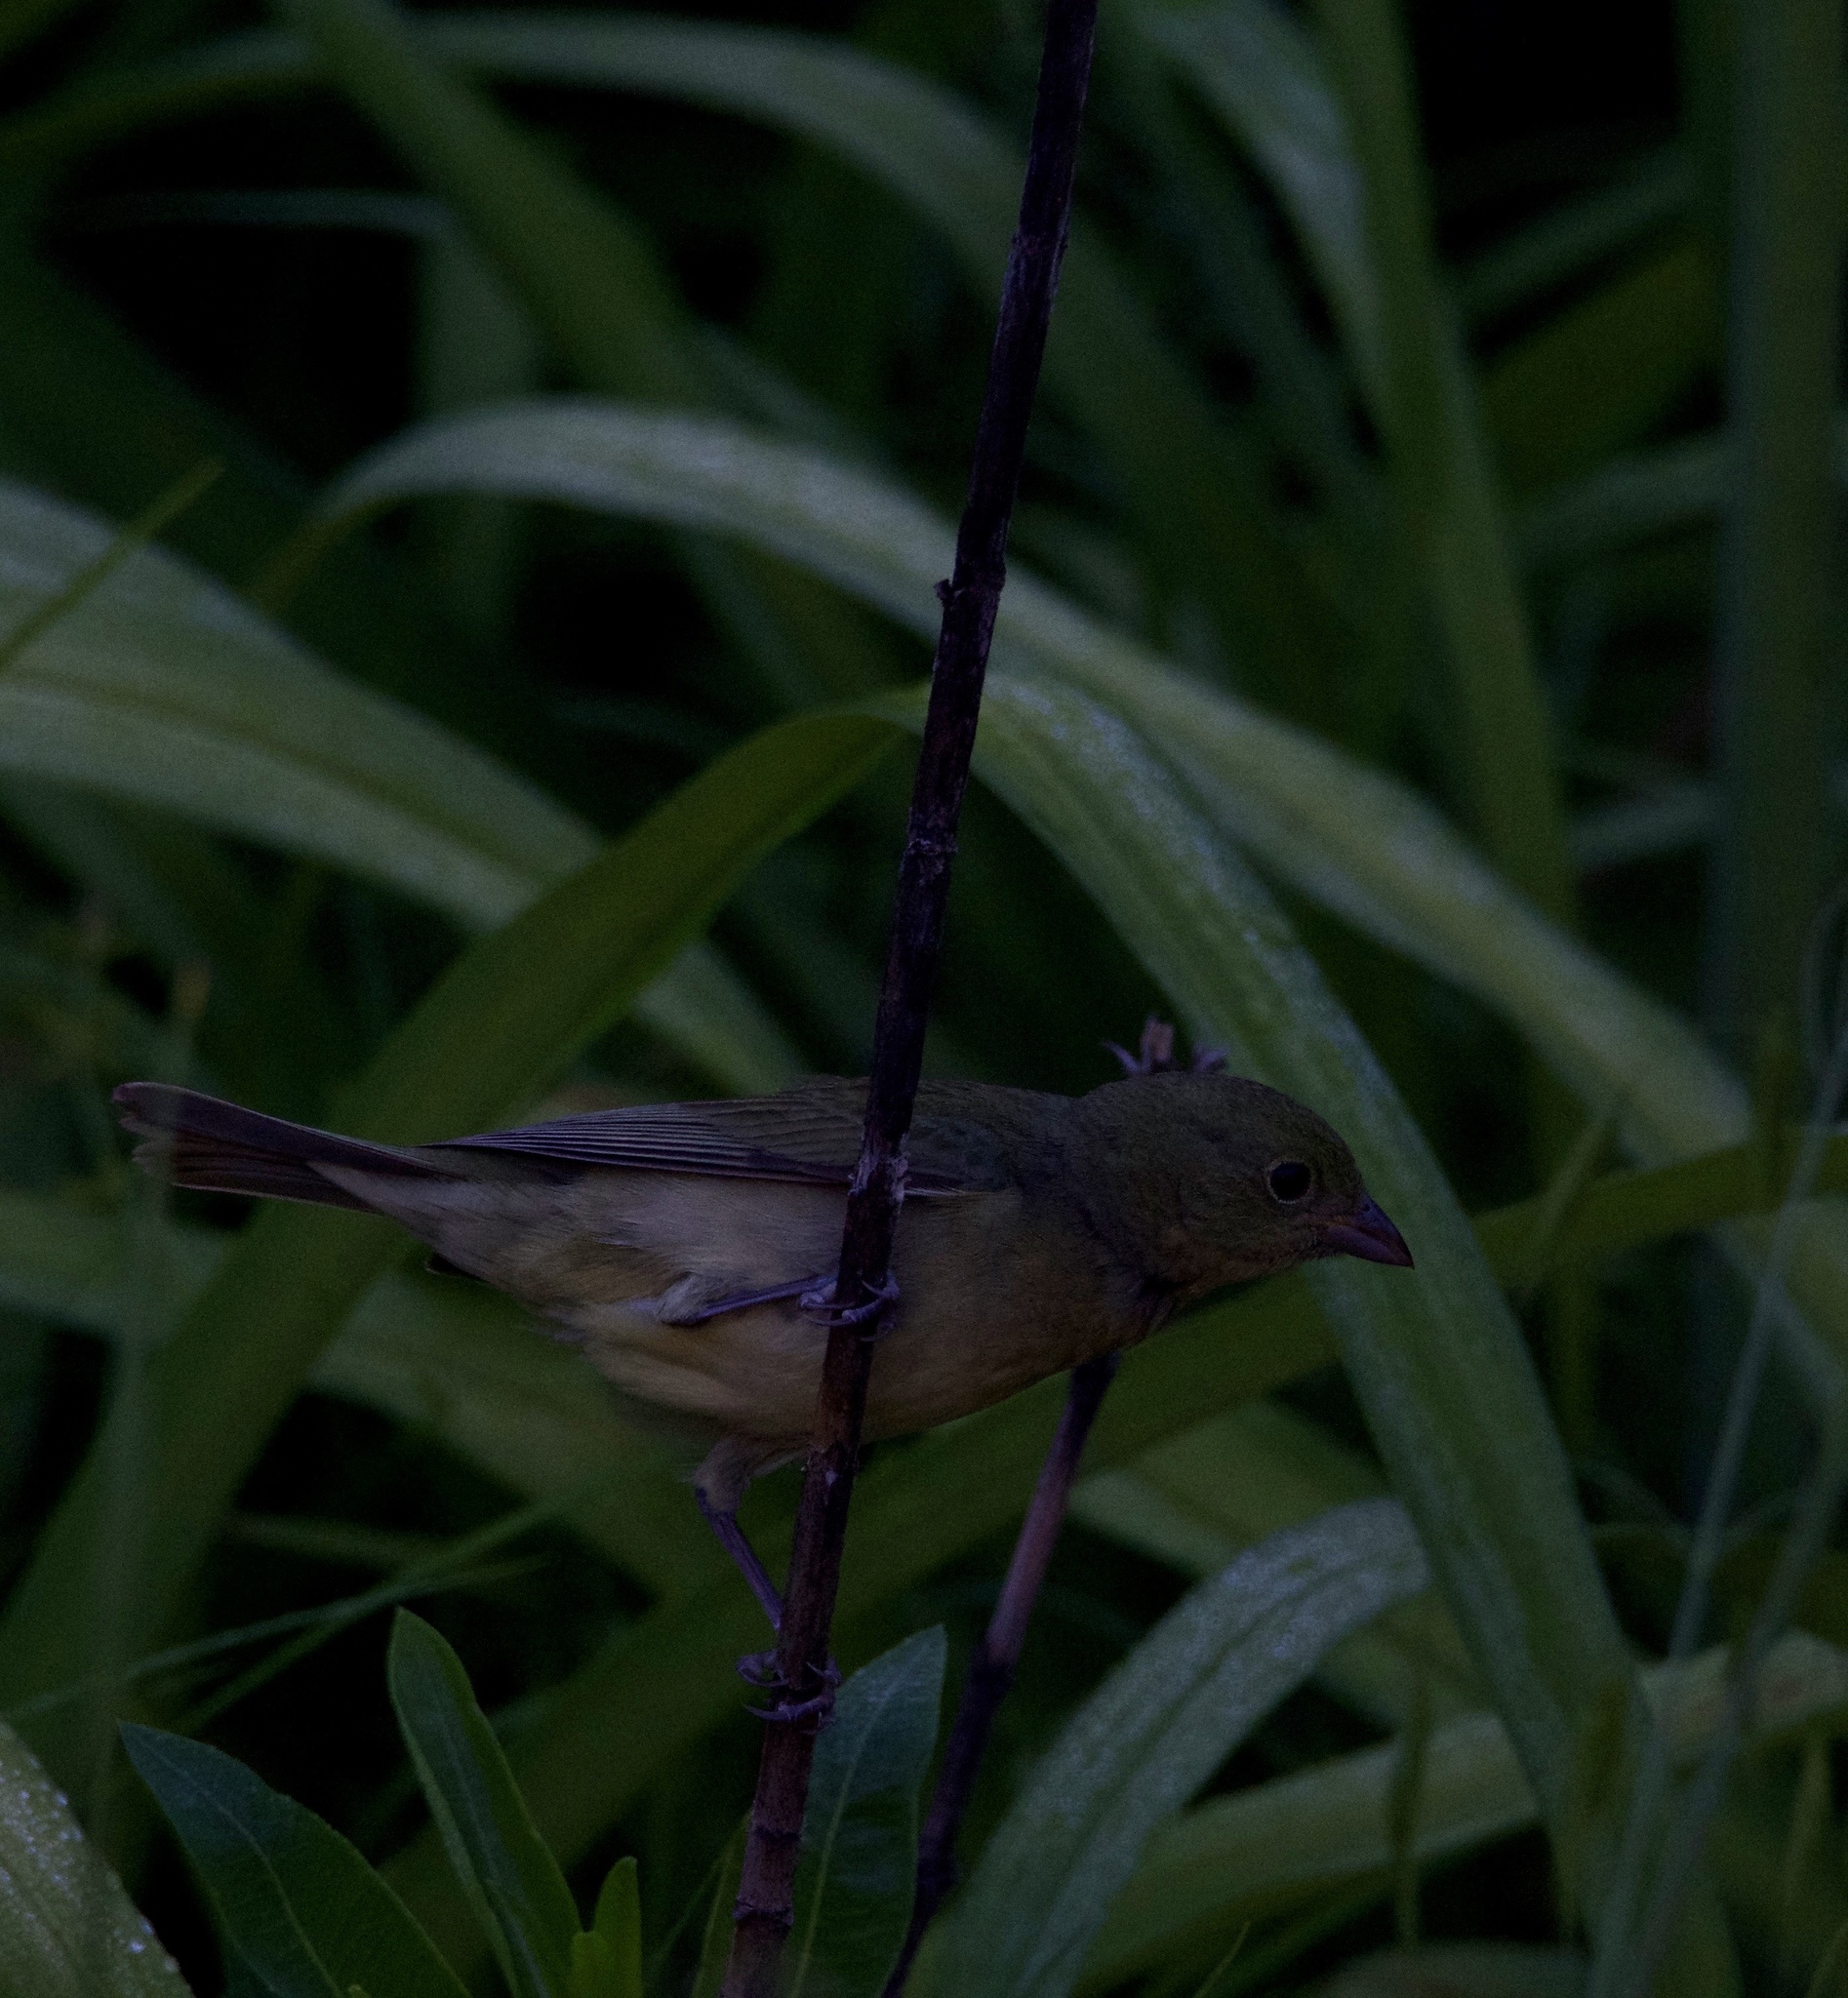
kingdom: Animalia
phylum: Chordata
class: Aves
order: Passeriformes
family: Cardinalidae
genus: Passerina
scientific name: Passerina ciris
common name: Painted bunting
